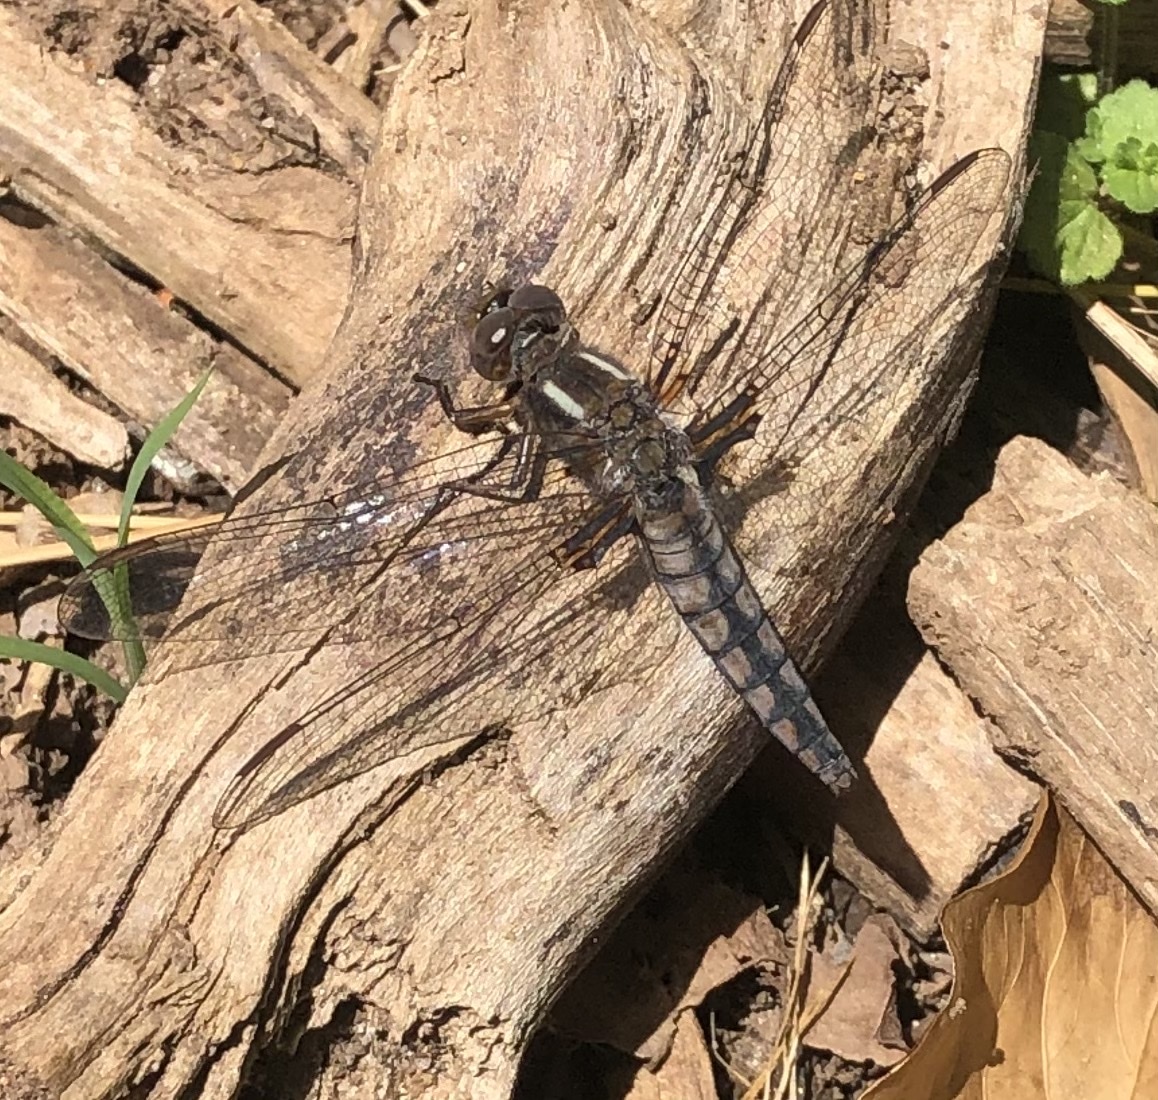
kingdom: Animalia
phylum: Arthropoda
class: Insecta
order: Odonata
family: Libellulidae
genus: Ladona
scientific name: Ladona deplanata
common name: Blue corporal
